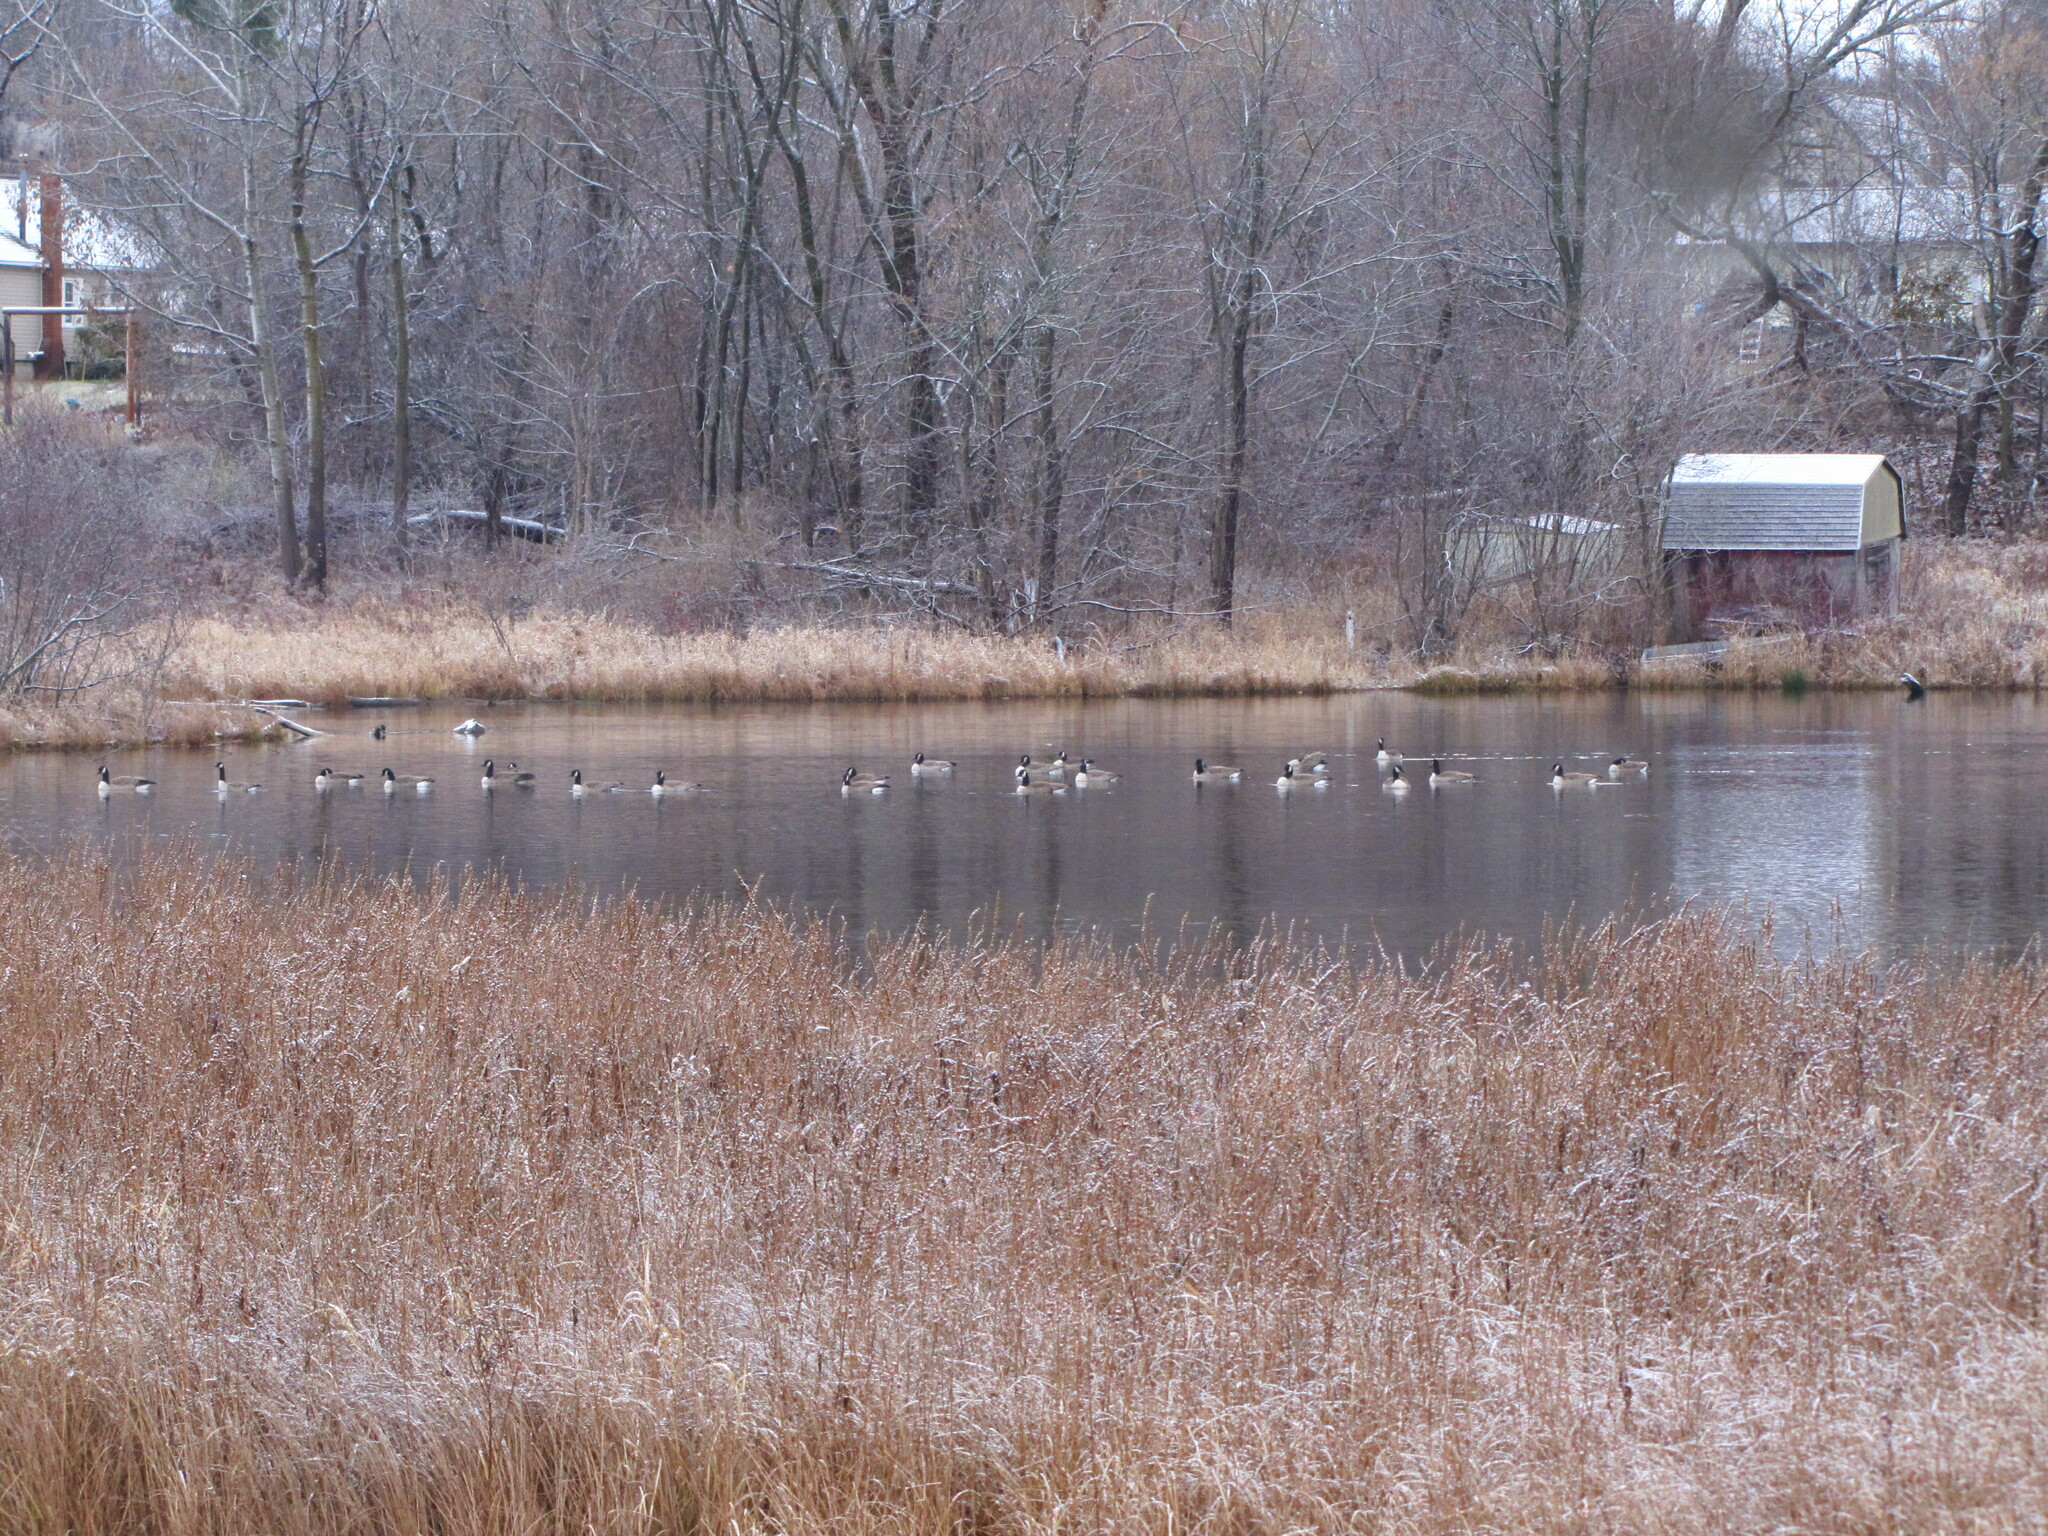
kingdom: Animalia
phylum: Chordata
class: Aves
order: Anseriformes
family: Anatidae
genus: Branta
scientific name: Branta canadensis
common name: Canada goose
